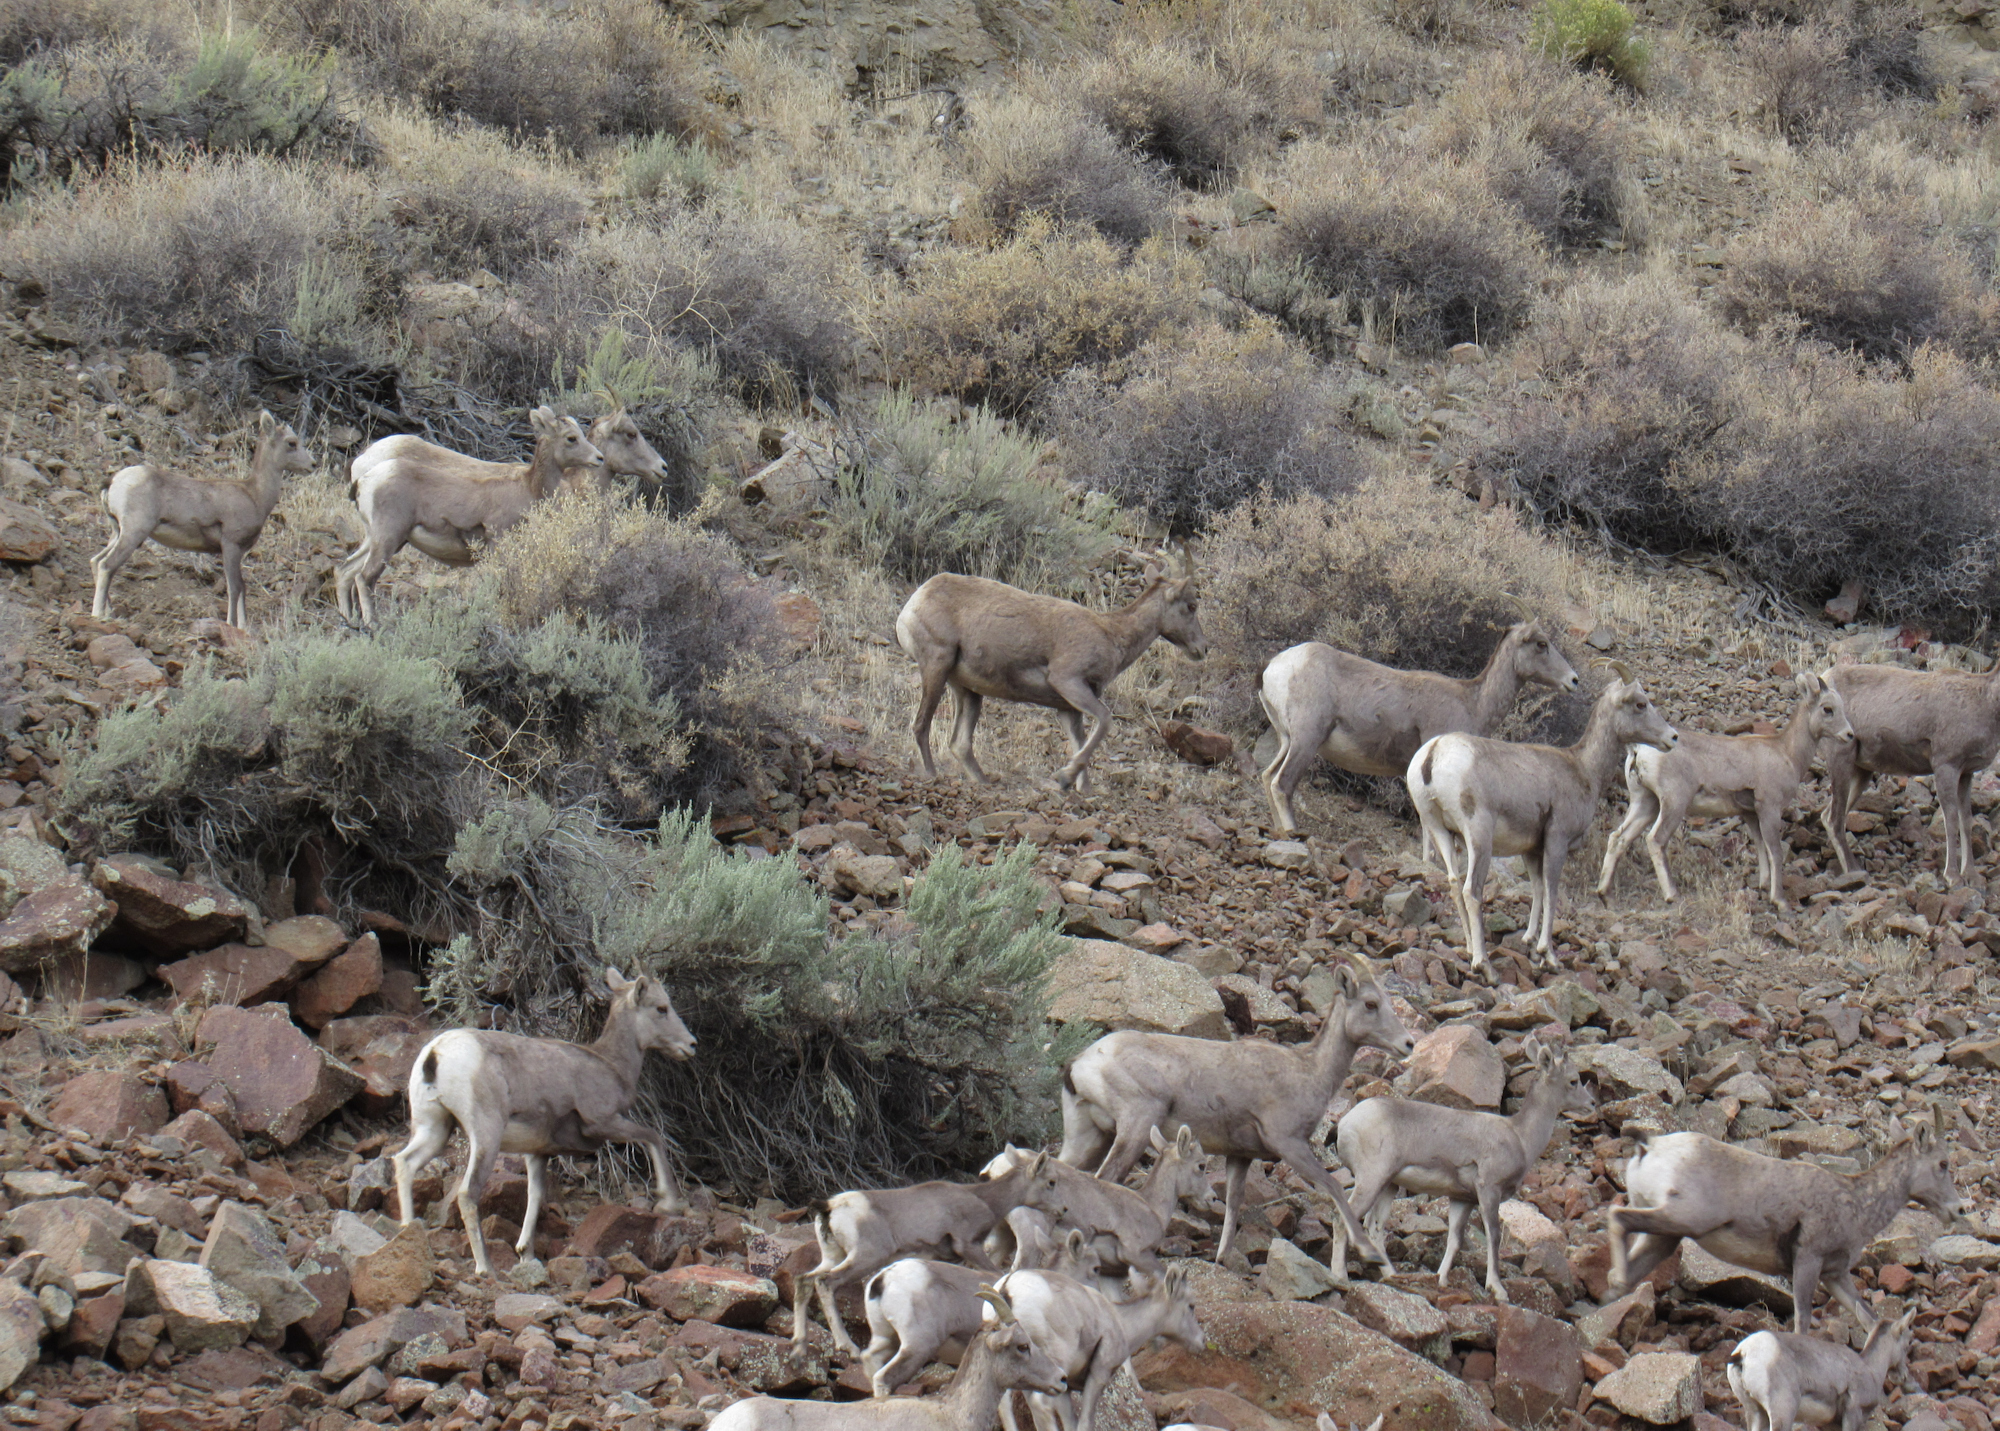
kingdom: Animalia
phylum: Chordata
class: Mammalia
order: Artiodactyla
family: Bovidae
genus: Ovis
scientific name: Ovis canadensis
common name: Bighorn sheep
